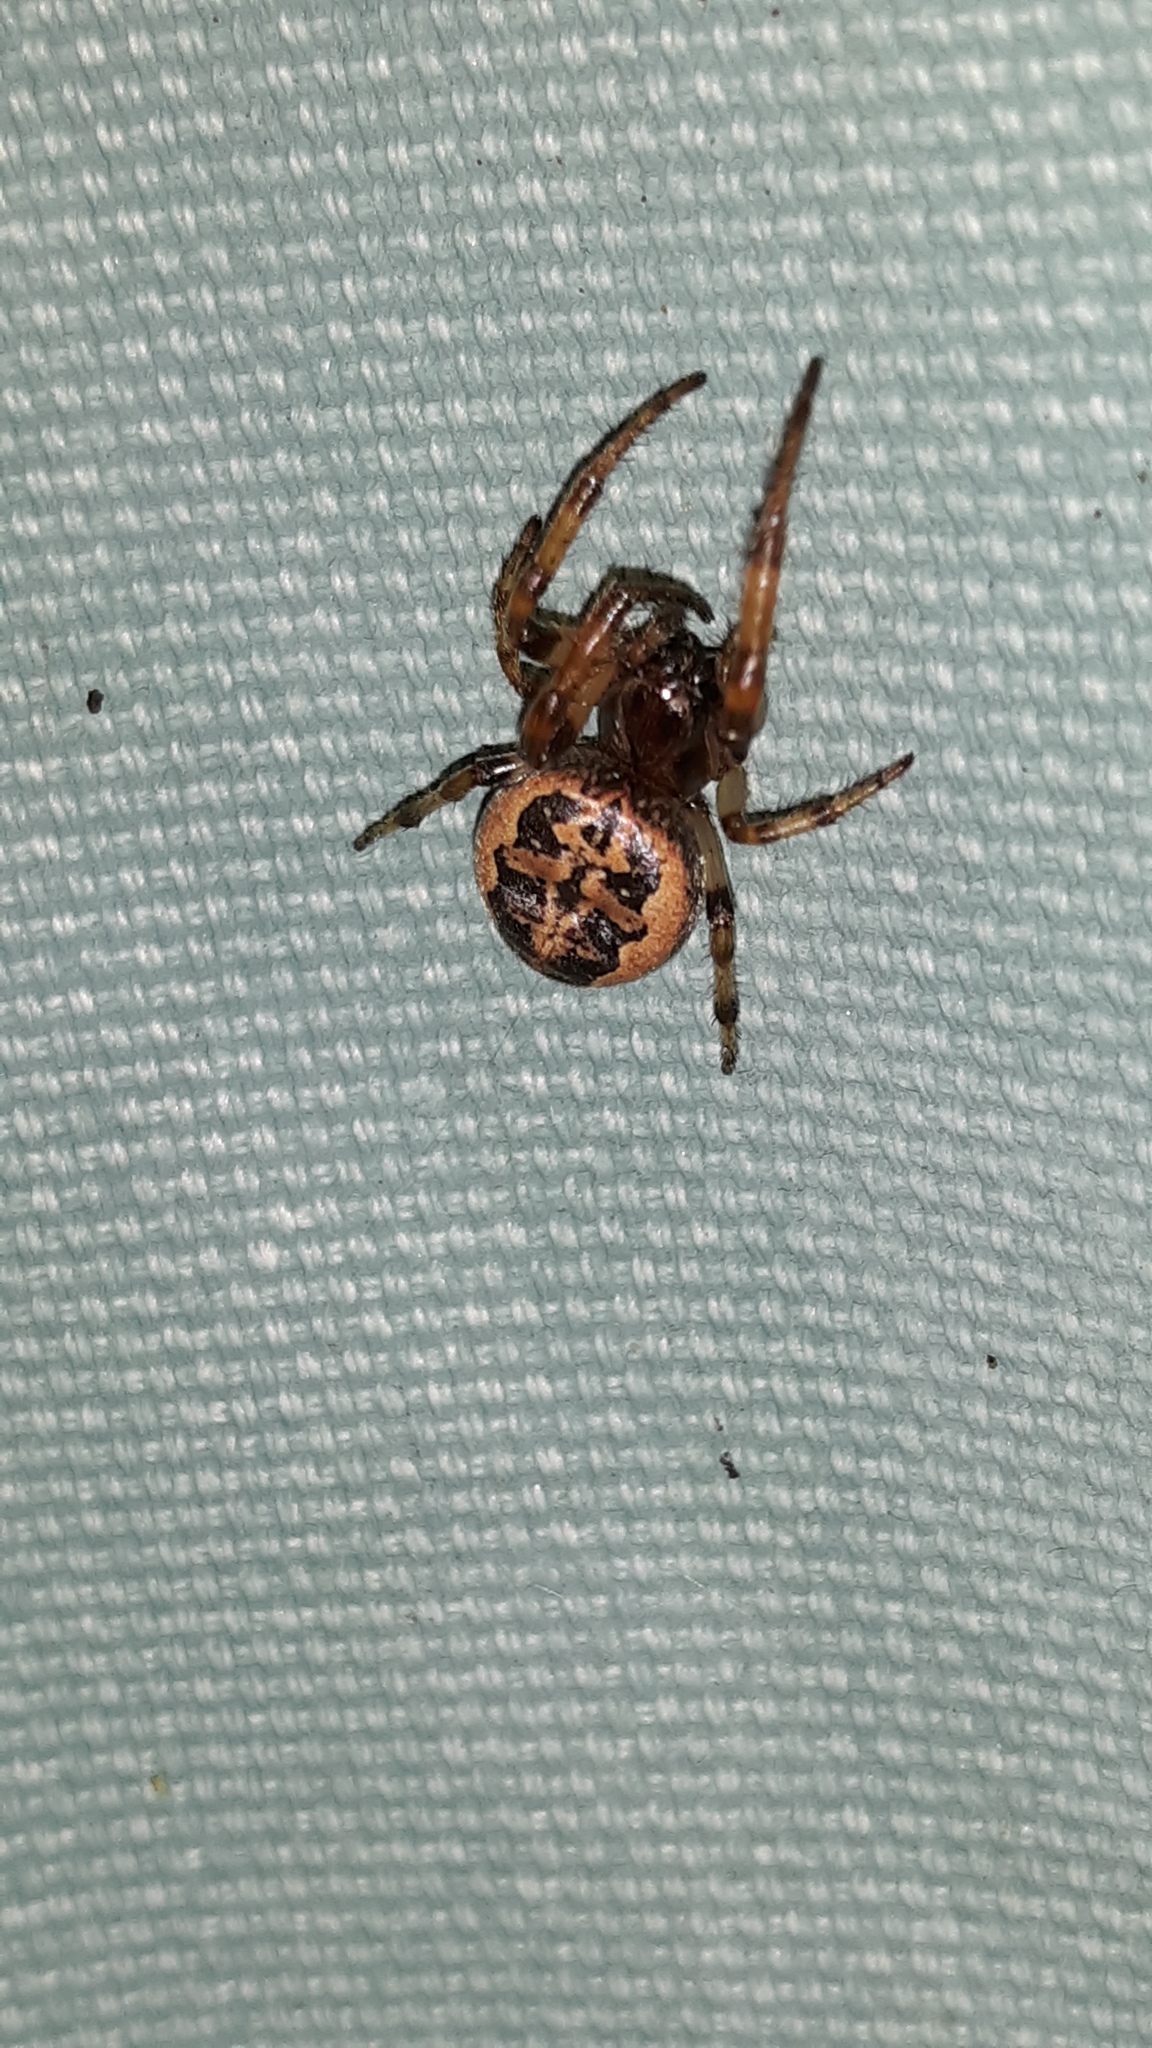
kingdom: Animalia
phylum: Arthropoda
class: Arachnida
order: Araneae
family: Araneidae
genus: Larinioides
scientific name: Larinioides cornutus
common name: Furrow orbweaver
